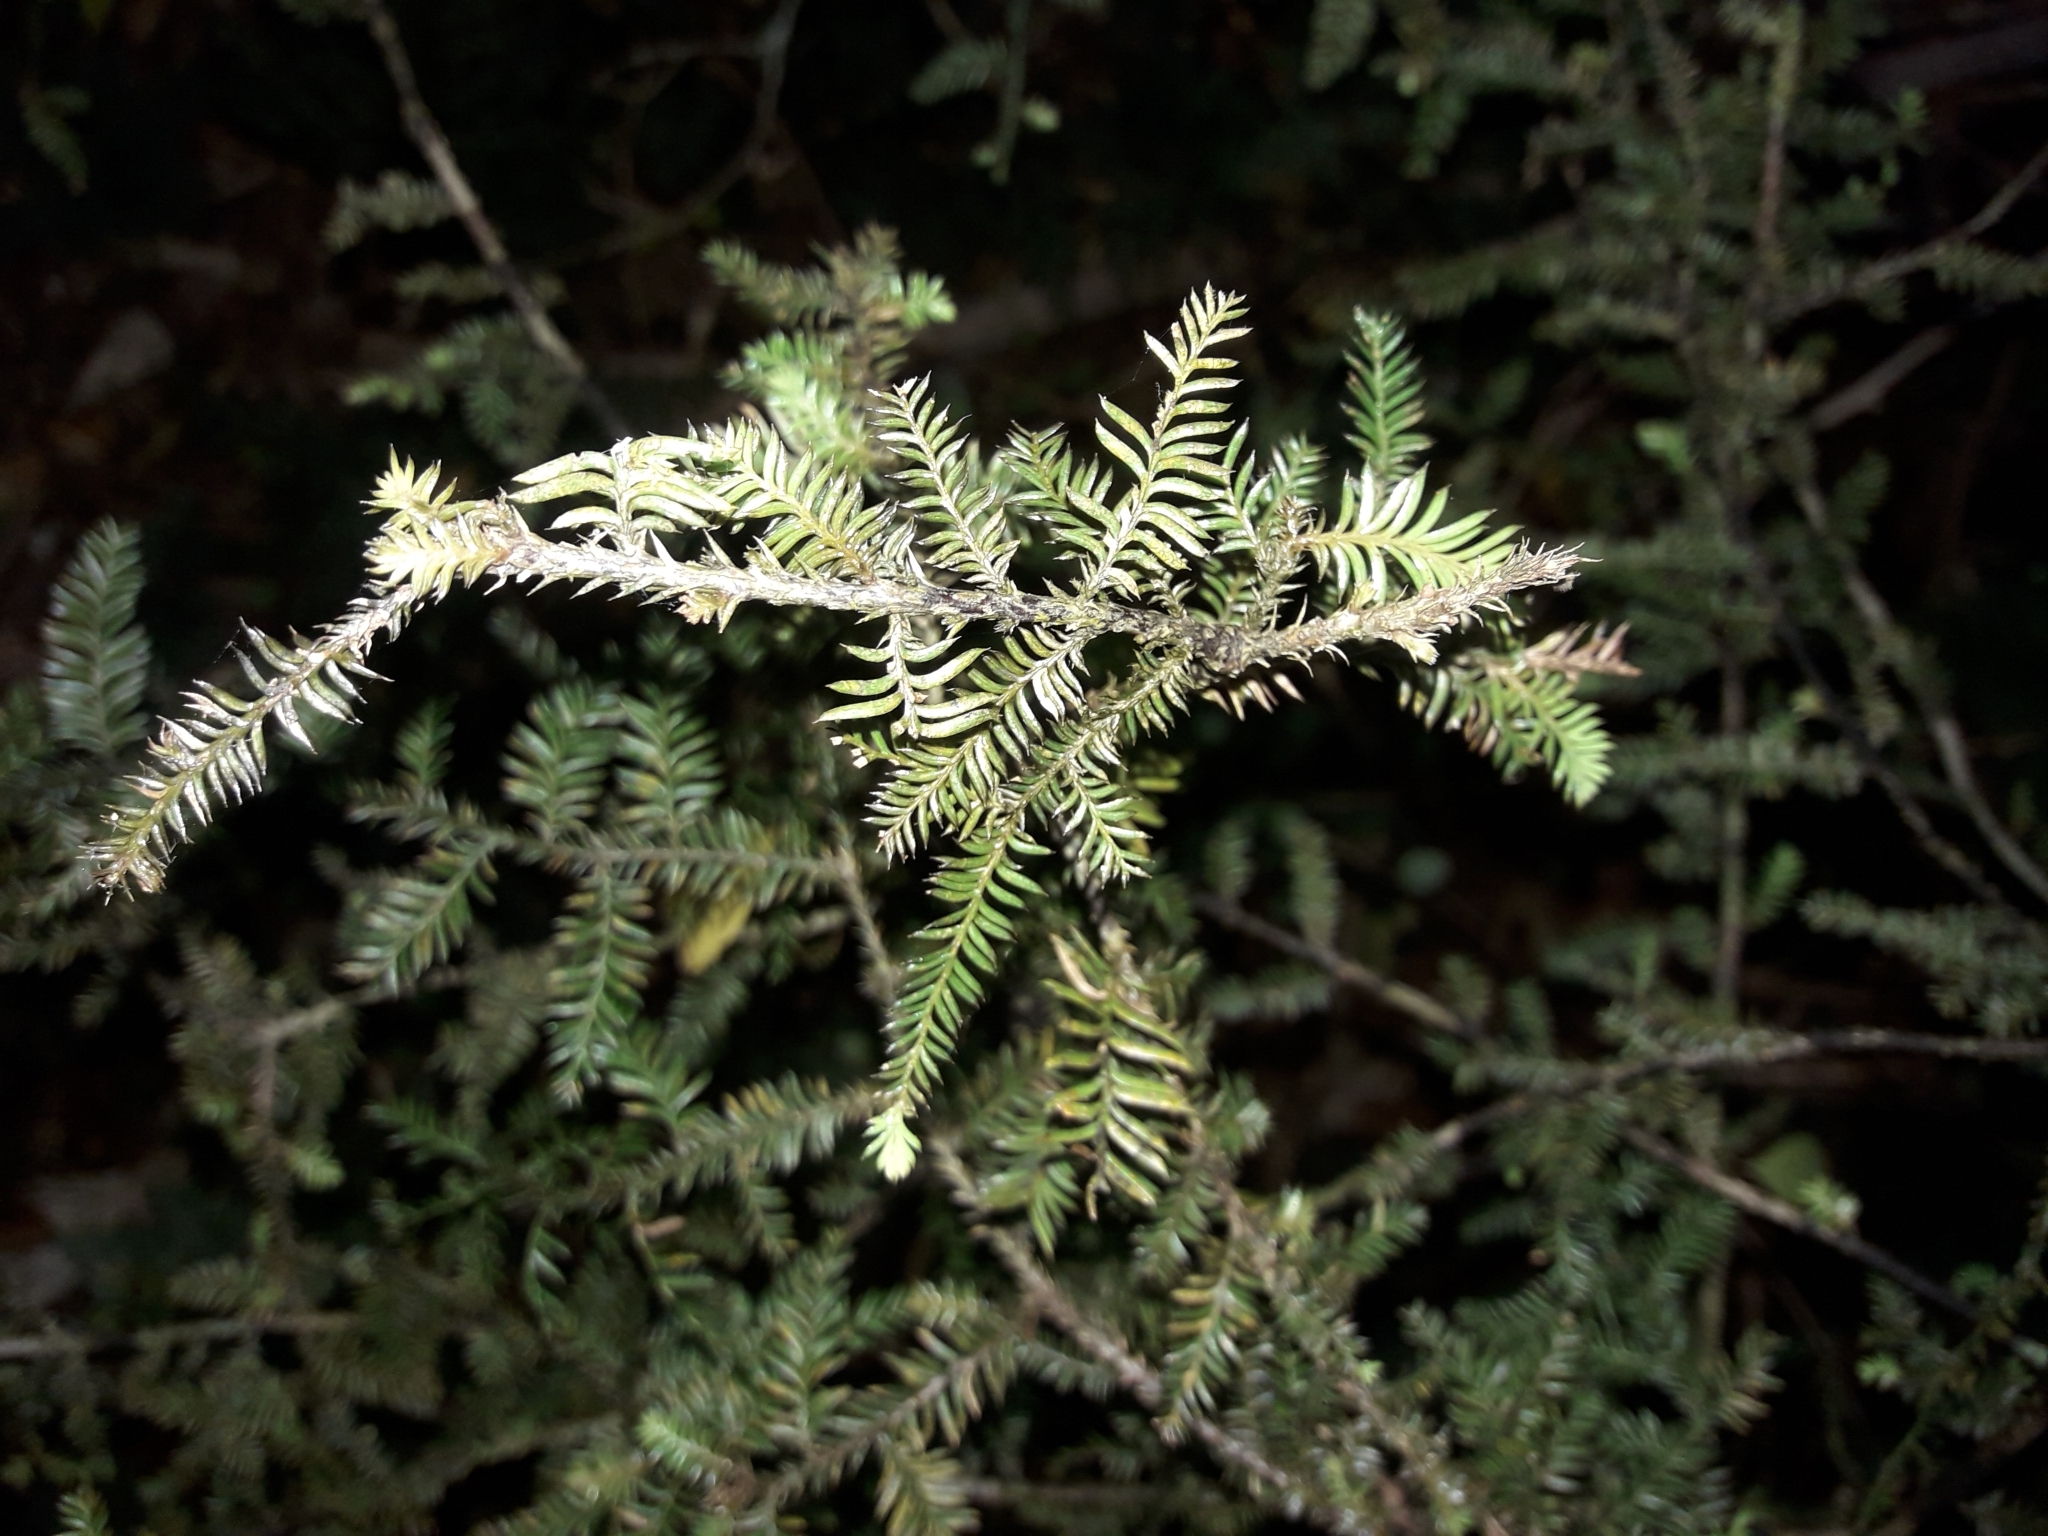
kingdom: Plantae
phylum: Tracheophyta
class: Pinopsida
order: Pinales
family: Podocarpaceae
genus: Dacrycarpus
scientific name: Dacrycarpus dacrydioides
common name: White pine
